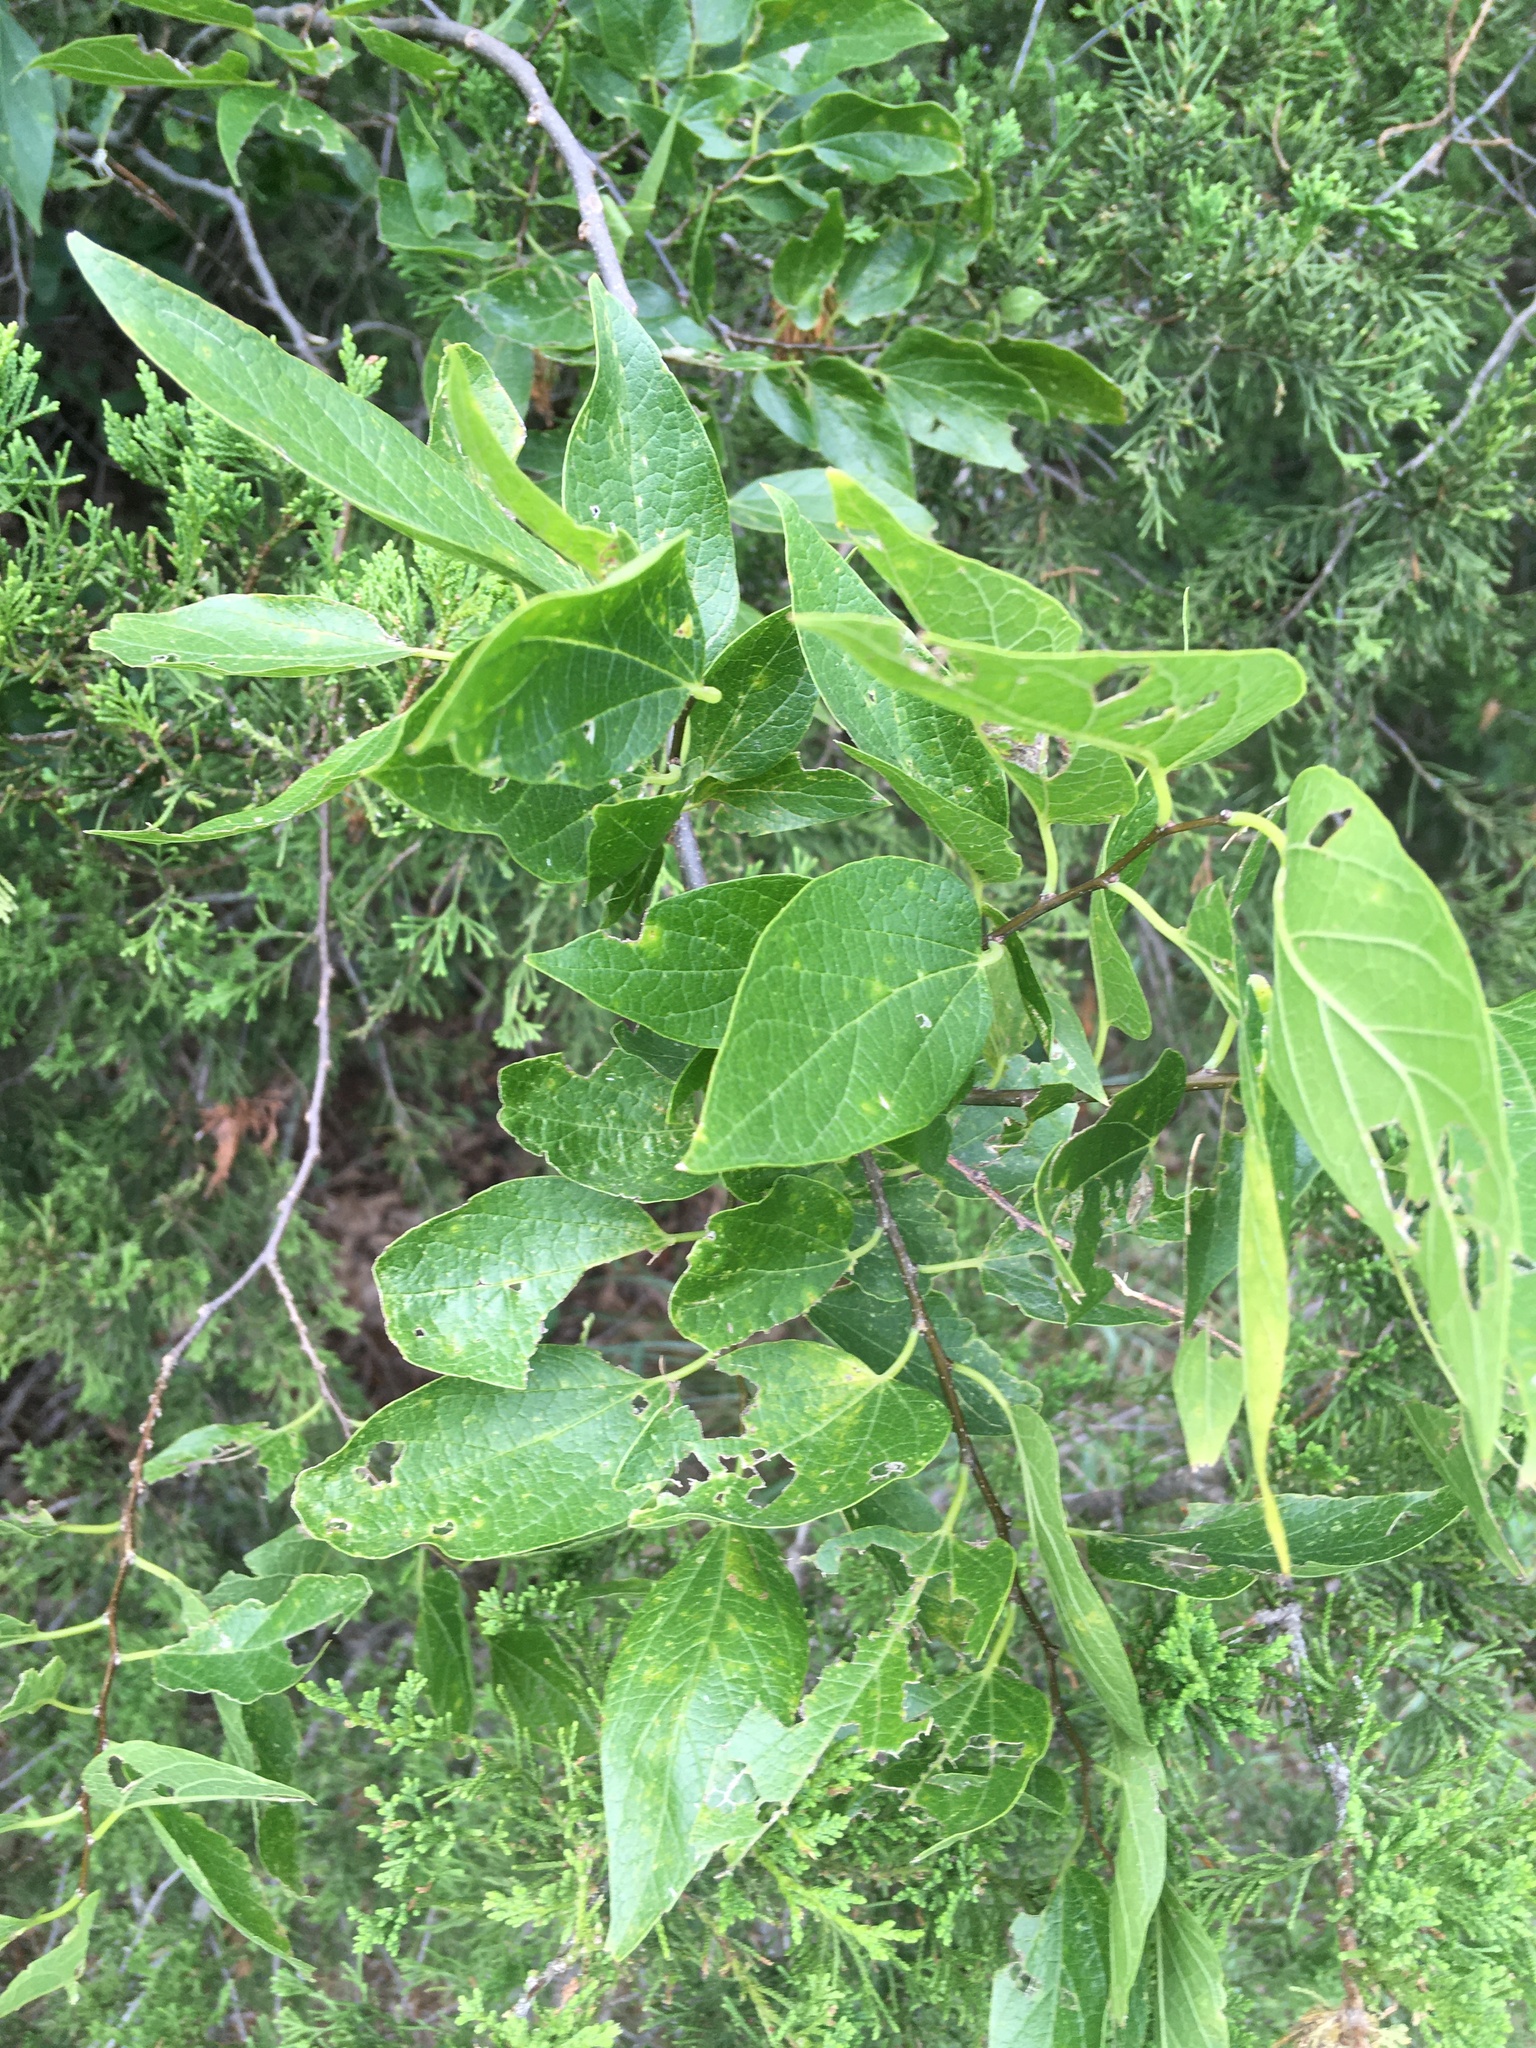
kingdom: Plantae
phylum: Tracheophyta
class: Magnoliopsida
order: Rosales
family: Cannabaceae
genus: Celtis
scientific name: Celtis laevigata
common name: Sugarberry
